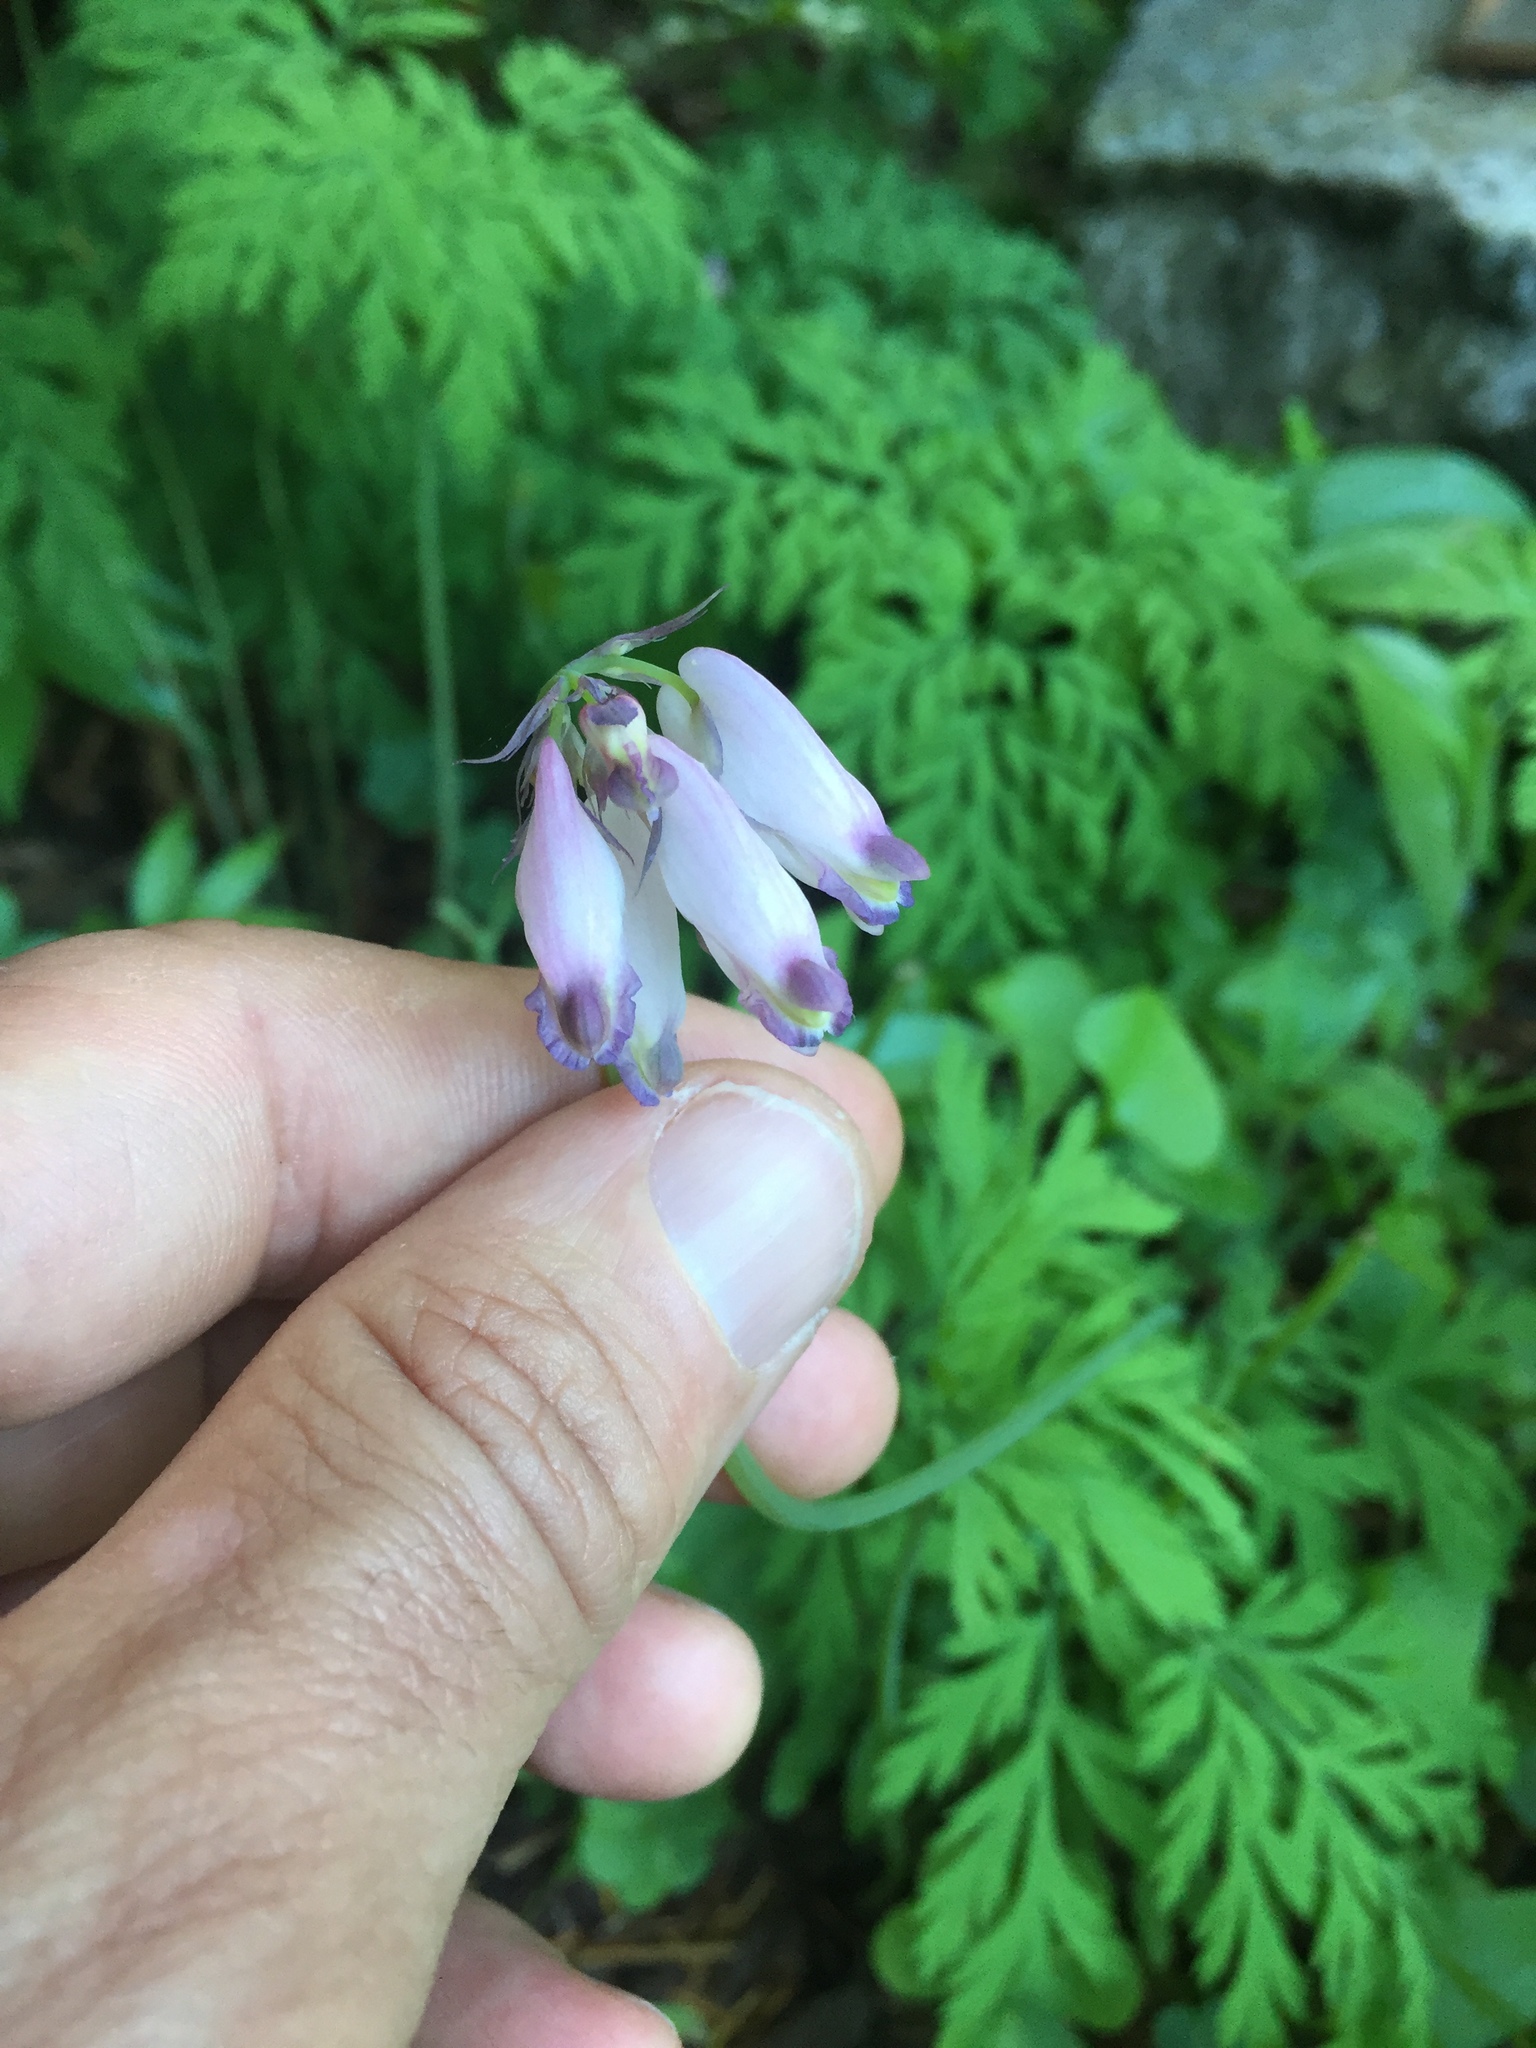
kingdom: Plantae
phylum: Tracheophyta
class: Magnoliopsida
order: Ranunculales
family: Papaveraceae
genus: Dicentra
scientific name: Dicentra formosa
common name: Bleeding-heart
